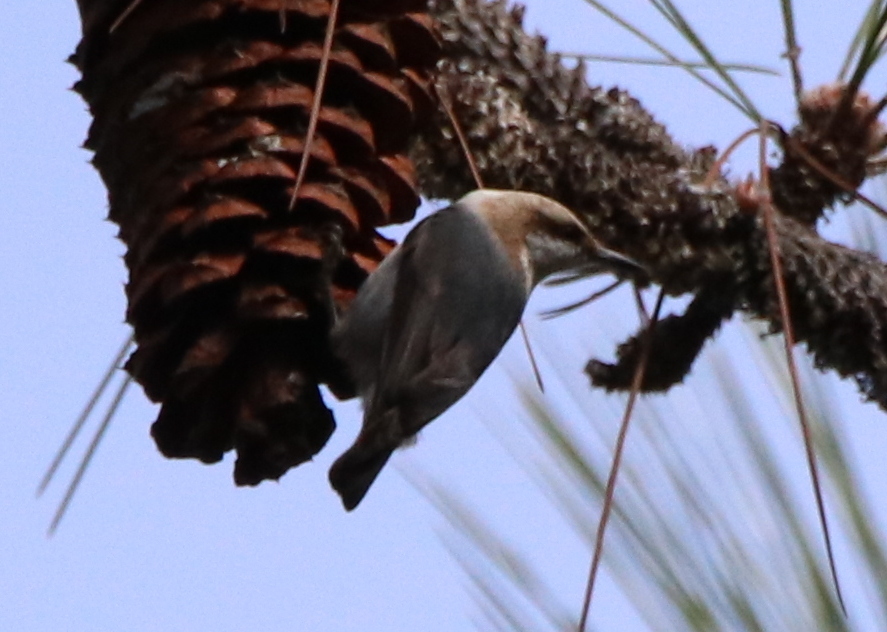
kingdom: Animalia
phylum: Chordata
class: Aves
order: Passeriformes
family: Sittidae
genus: Sitta
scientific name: Sitta pusilla
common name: Brown-headed nuthatch
